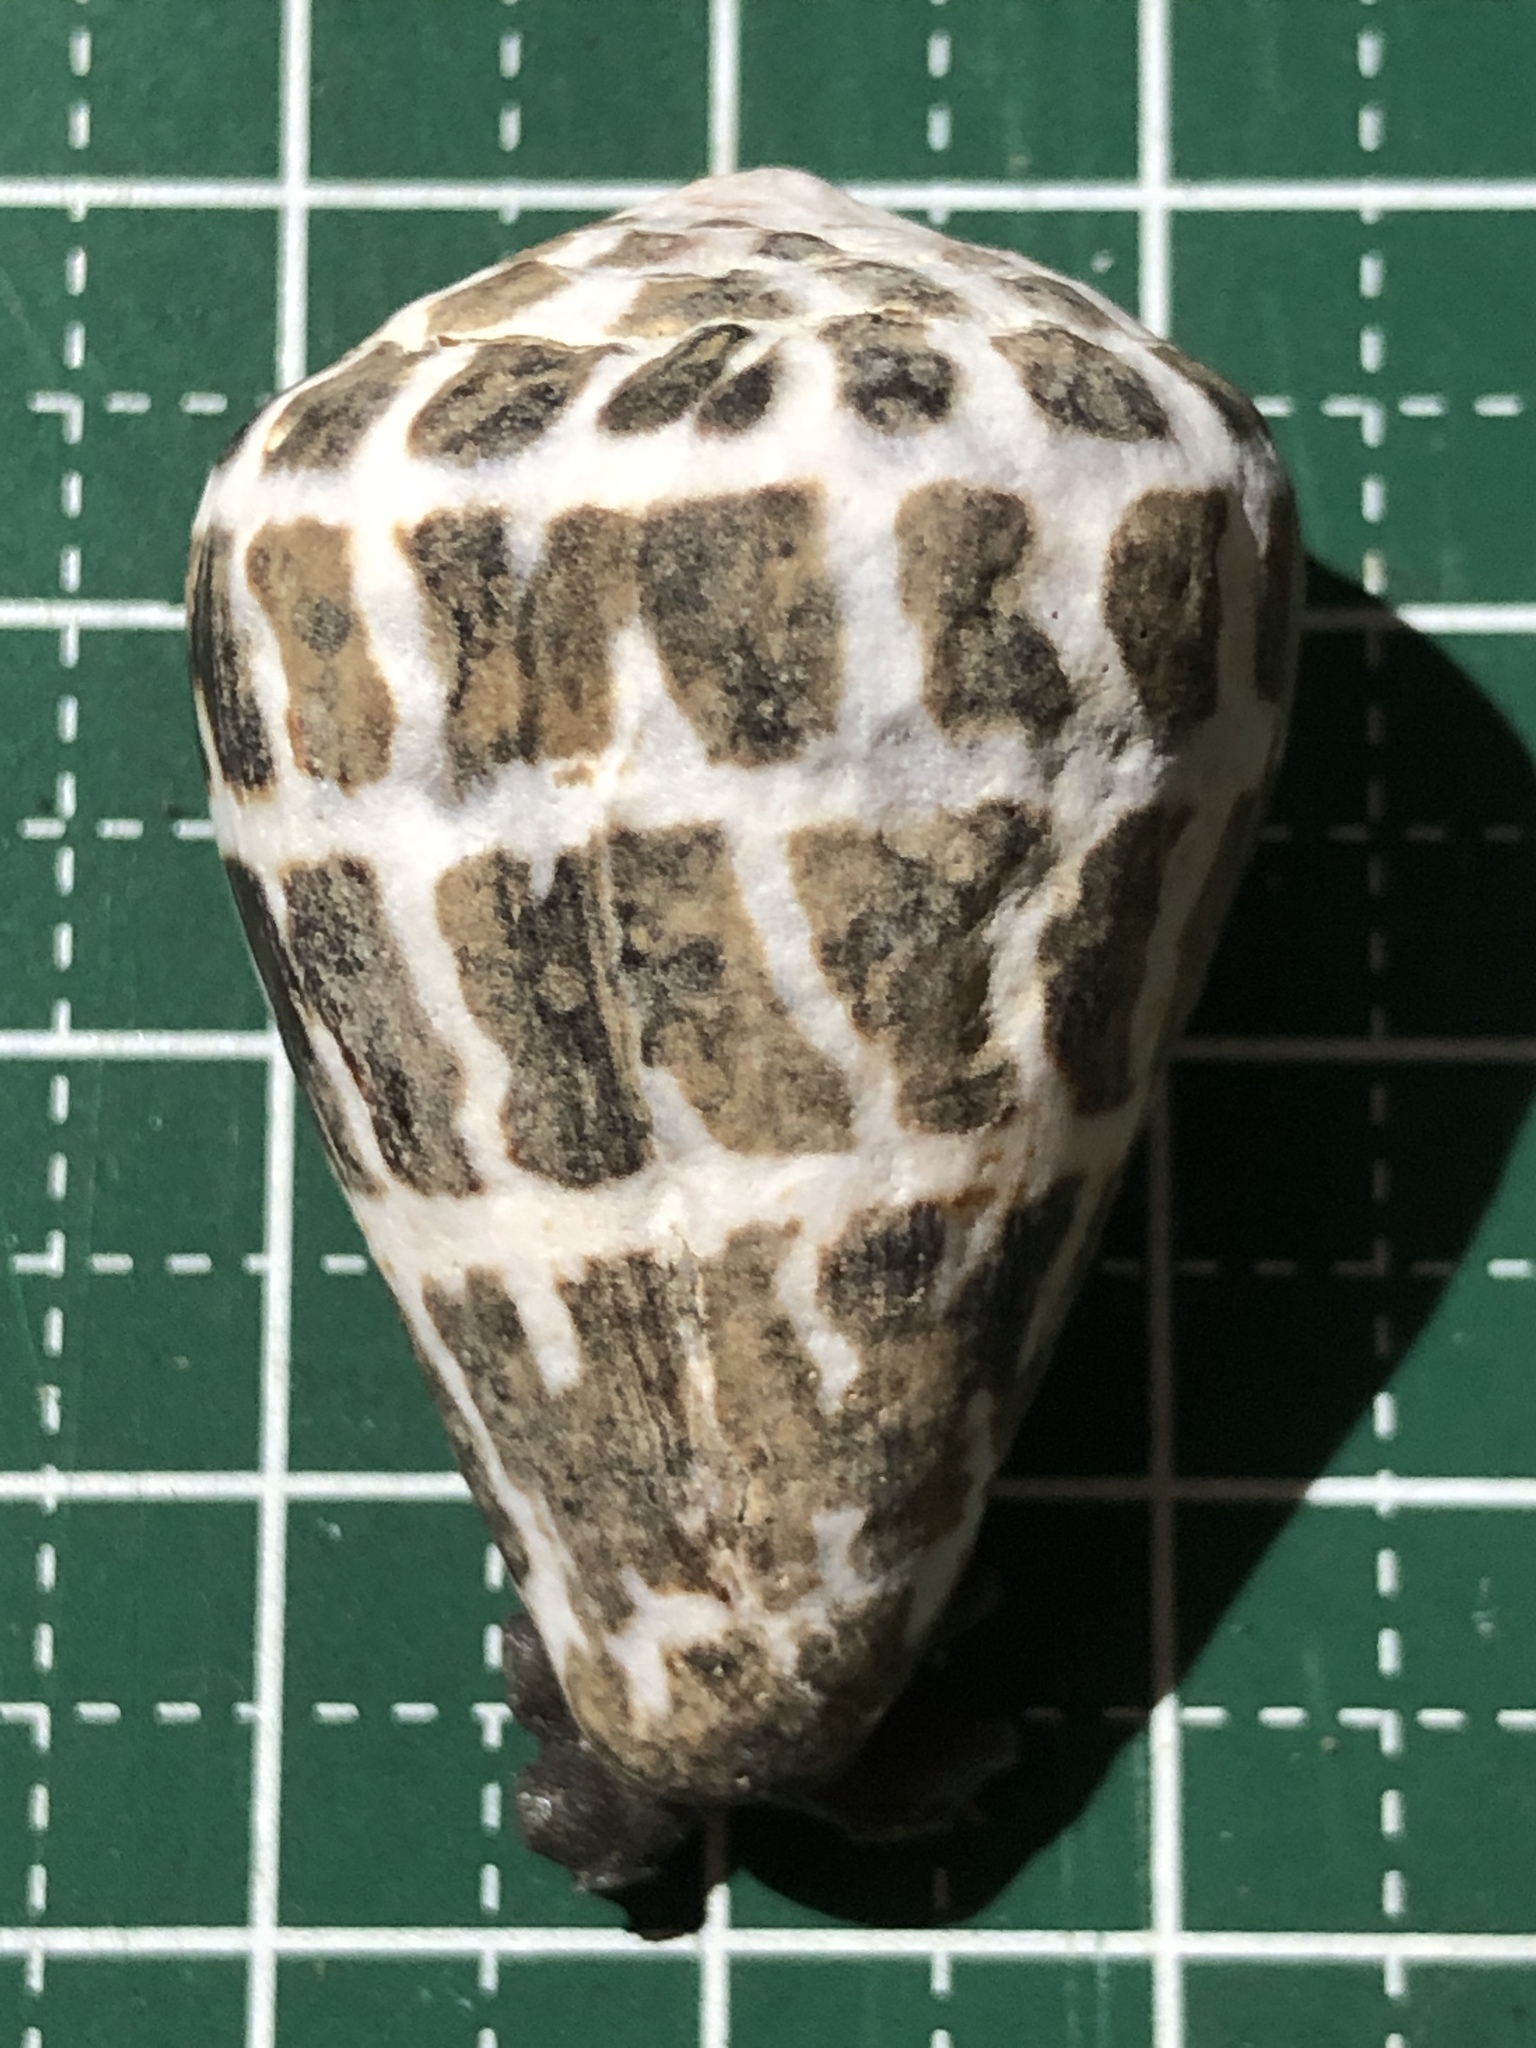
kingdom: Animalia
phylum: Mollusca
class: Gastropoda
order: Neogastropoda
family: Conidae
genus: Conus
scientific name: Conus ebraeus
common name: Hebrew cone
